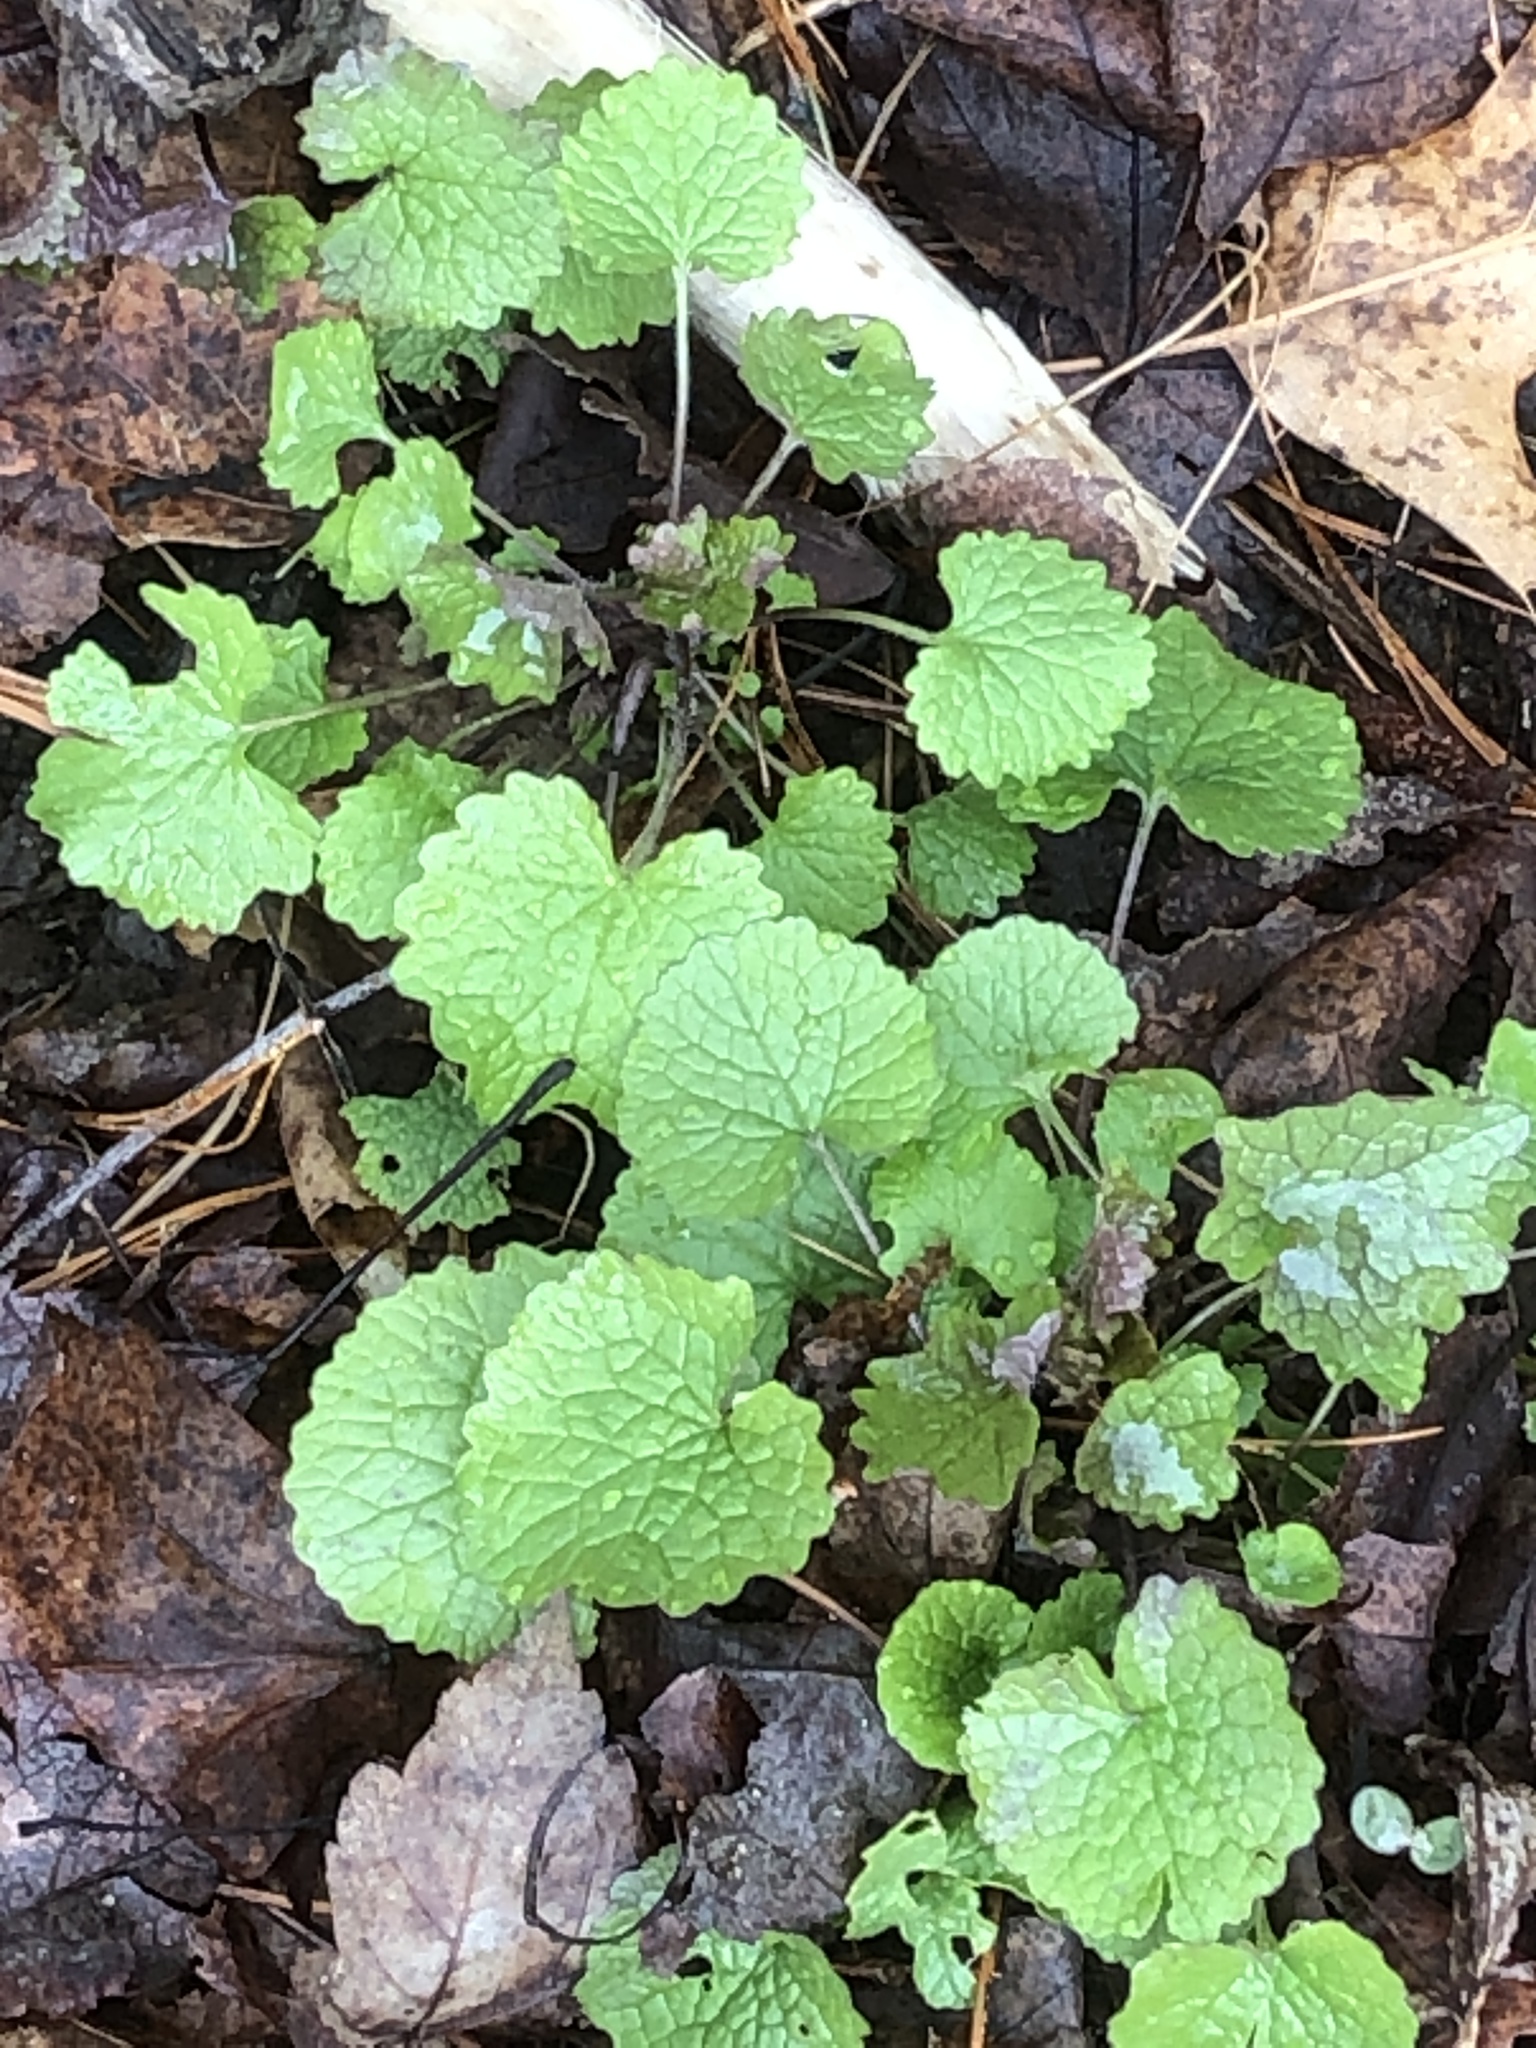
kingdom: Plantae
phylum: Tracheophyta
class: Magnoliopsida
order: Brassicales
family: Brassicaceae
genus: Alliaria
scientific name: Alliaria petiolata
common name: Garlic mustard
